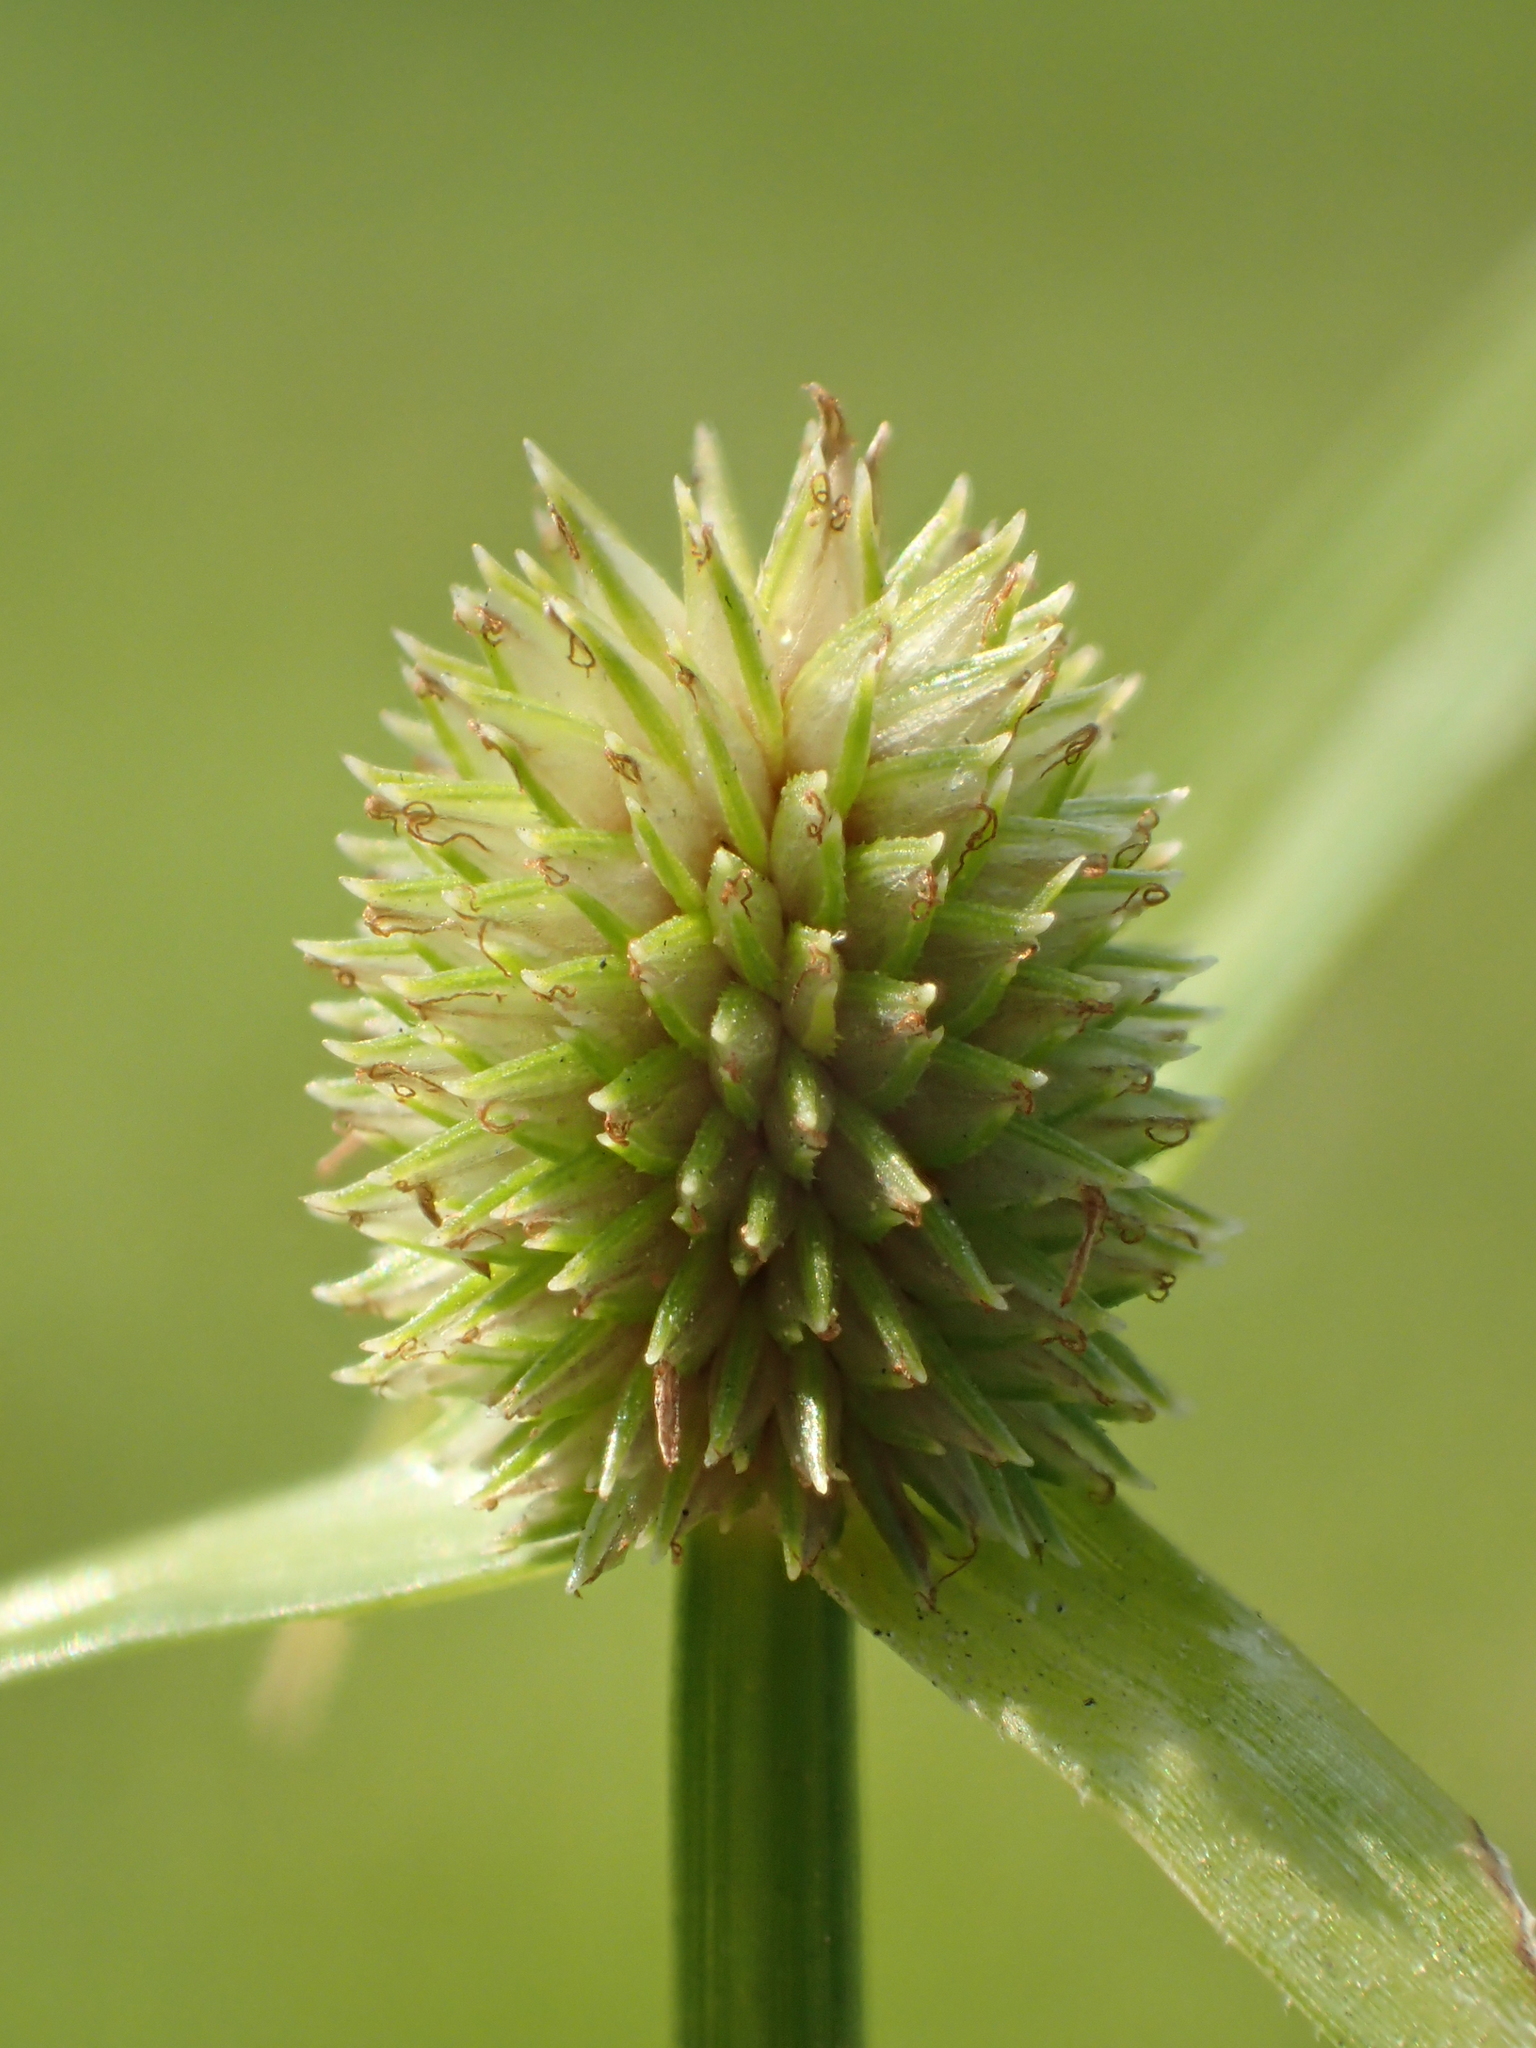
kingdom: Plantae
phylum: Tracheophyta
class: Liliopsida
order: Poales
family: Cyperaceae
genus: Cyperus
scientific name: Cyperus brevifolius
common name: Globe kyllinga
